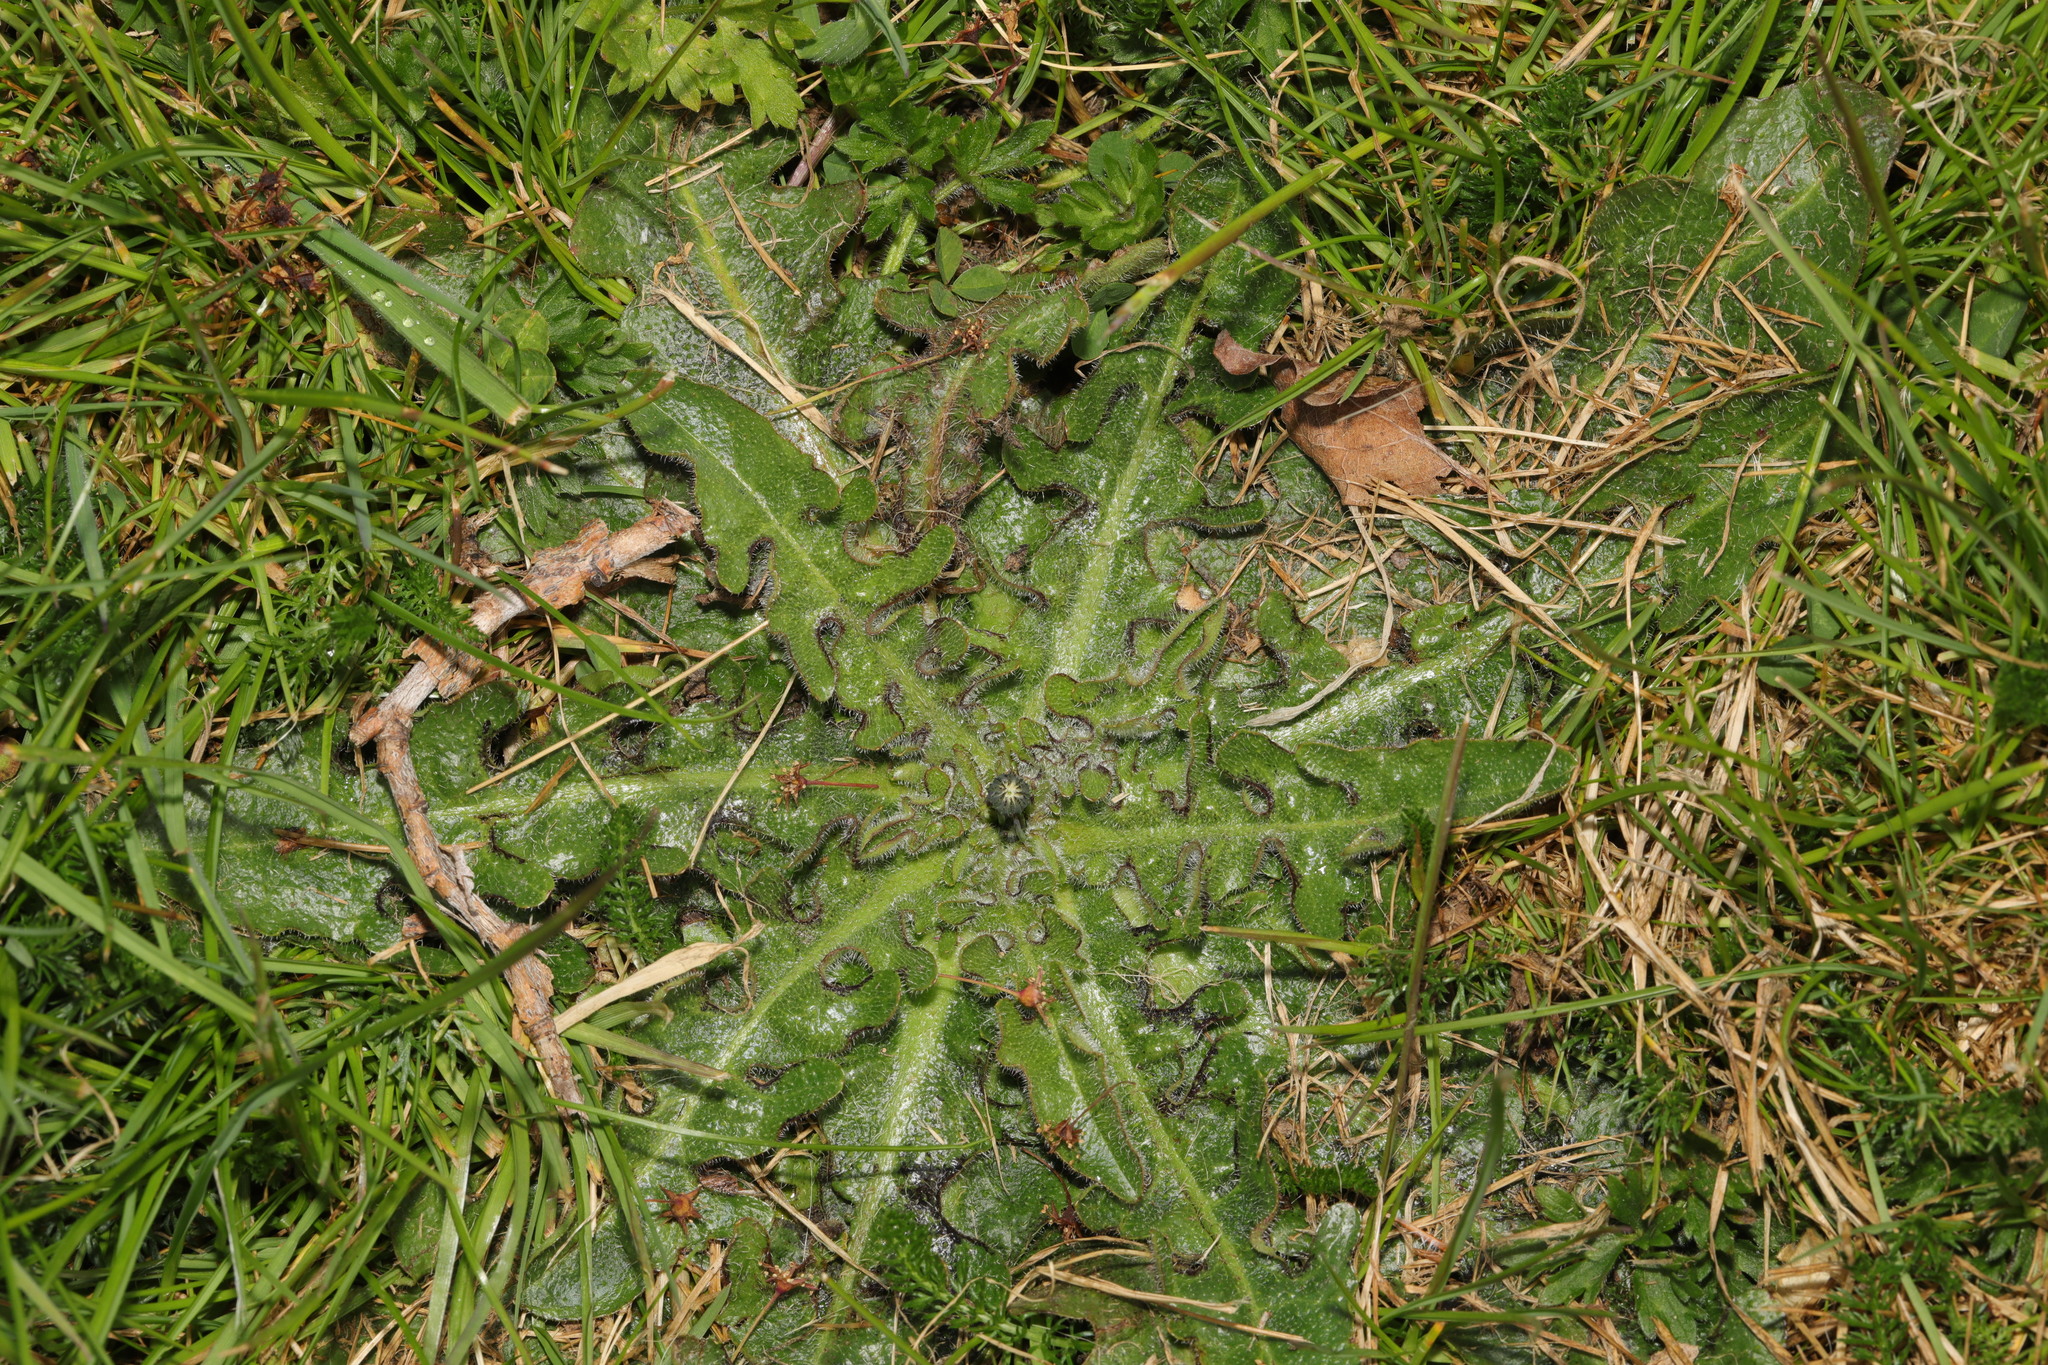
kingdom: Plantae
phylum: Tracheophyta
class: Magnoliopsida
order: Asterales
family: Asteraceae
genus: Hypochaeris
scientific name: Hypochaeris radicata
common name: Flatweed
